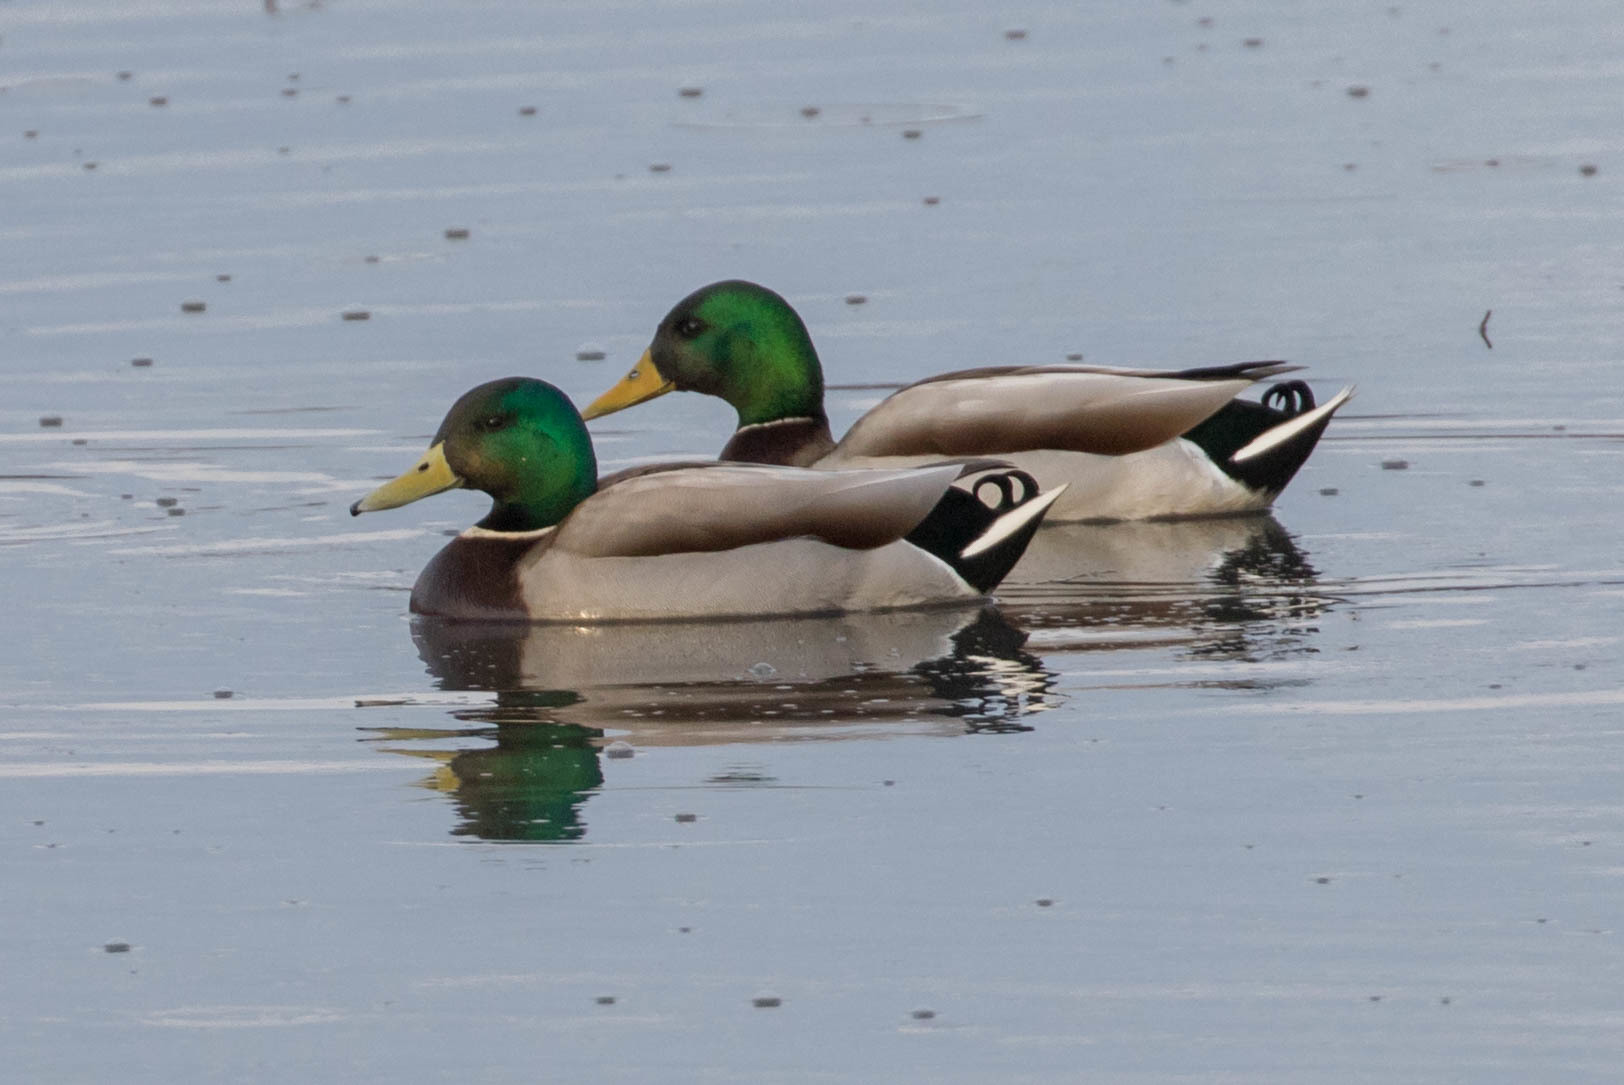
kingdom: Animalia
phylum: Chordata
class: Aves
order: Anseriformes
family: Anatidae
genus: Anas
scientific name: Anas platyrhynchos
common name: Mallard
